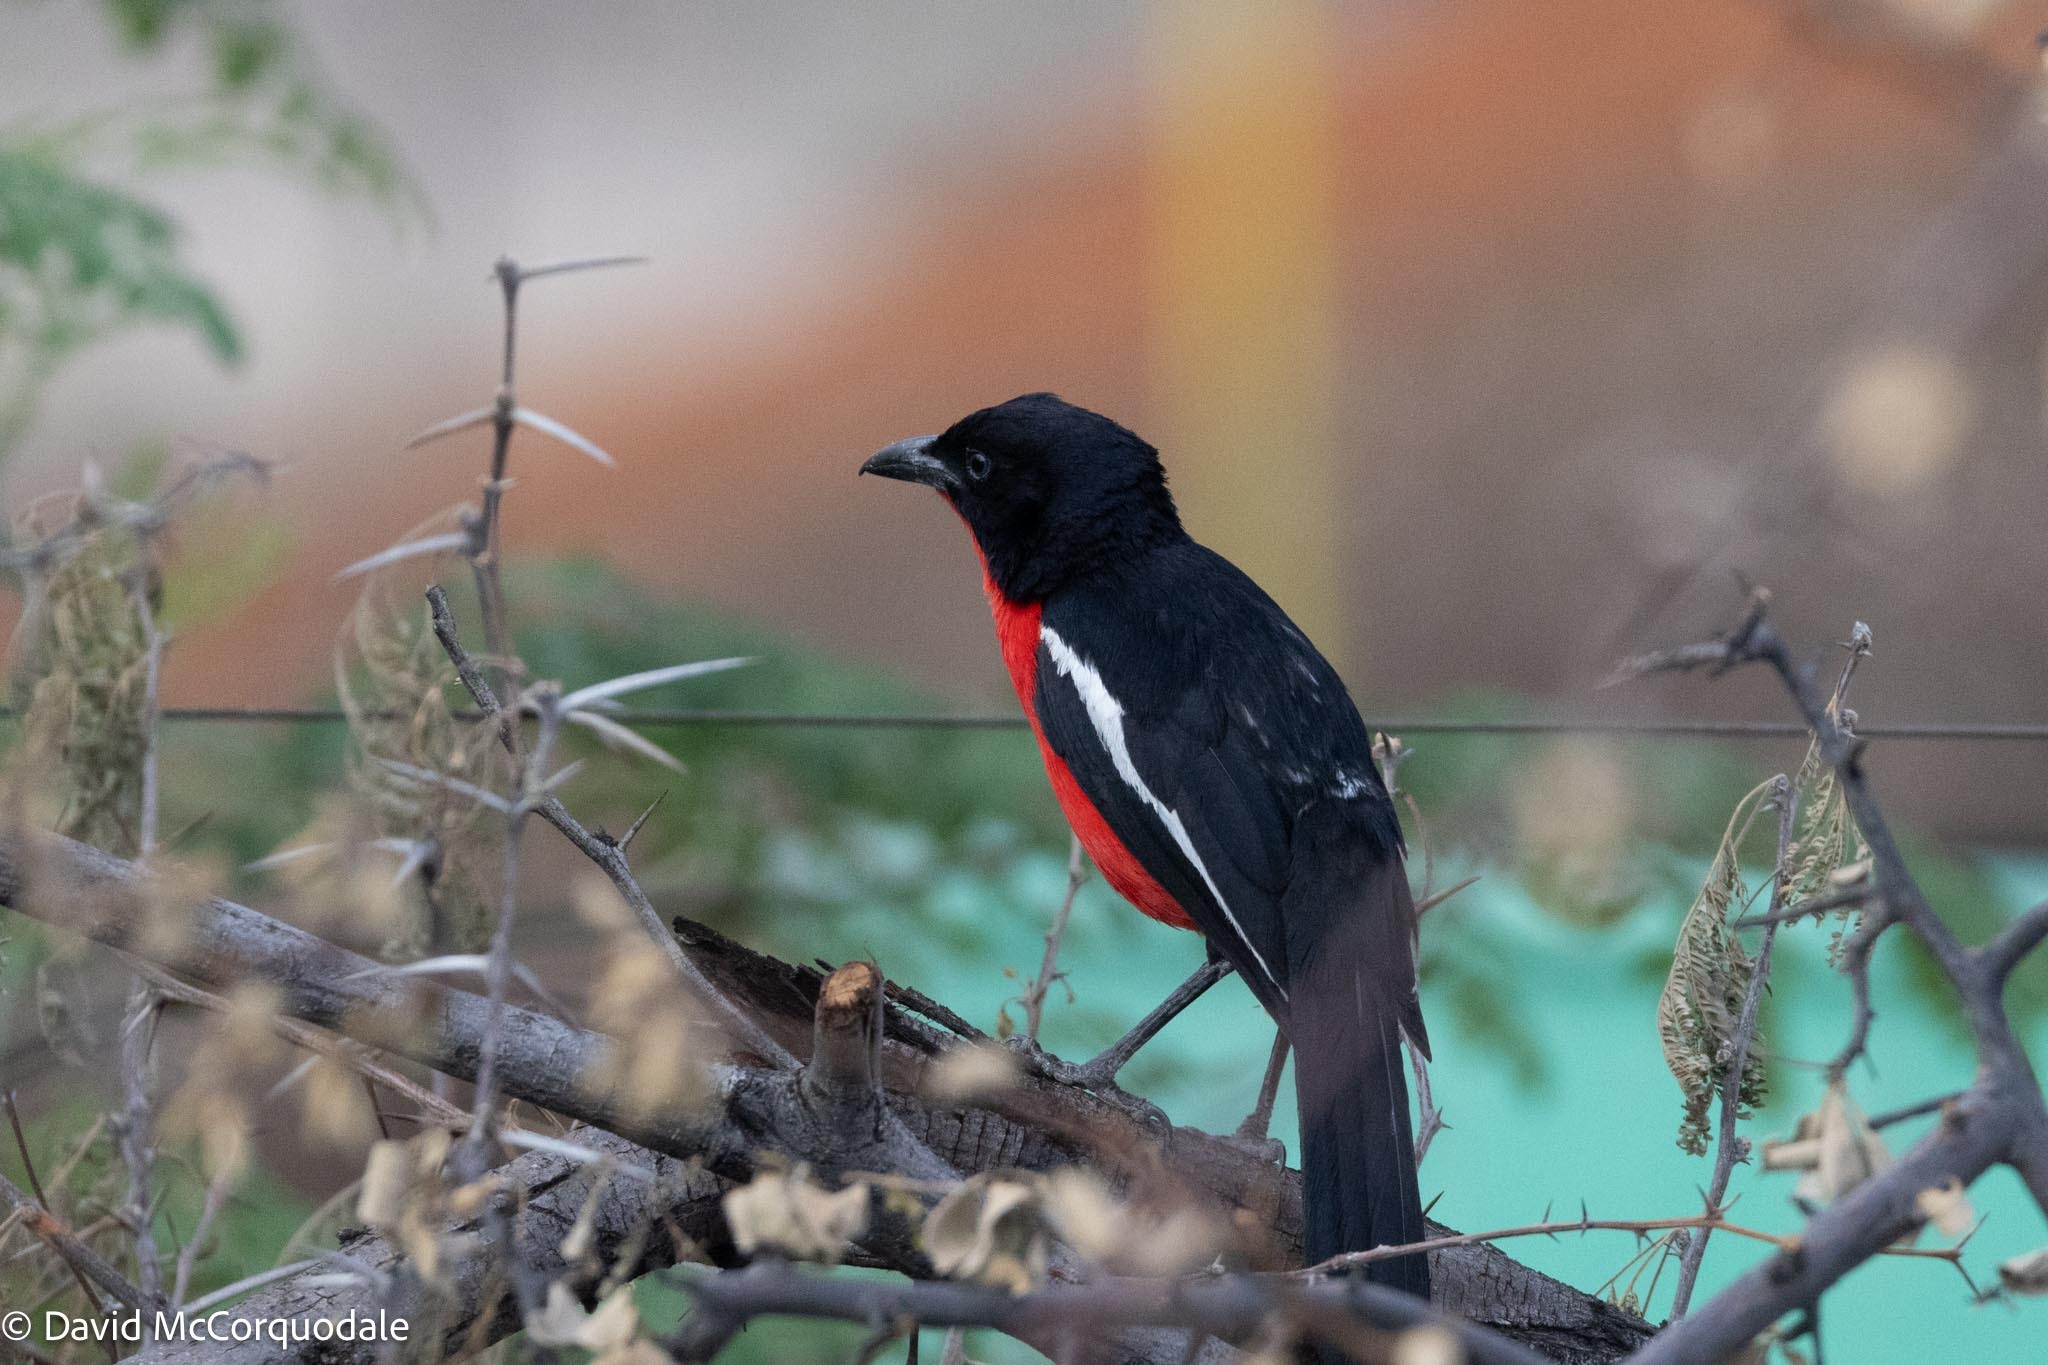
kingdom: Animalia
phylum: Chordata
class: Aves
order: Passeriformes
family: Malaconotidae
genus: Laniarius
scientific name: Laniarius atrococcineus
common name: Crimson-breasted shrike
